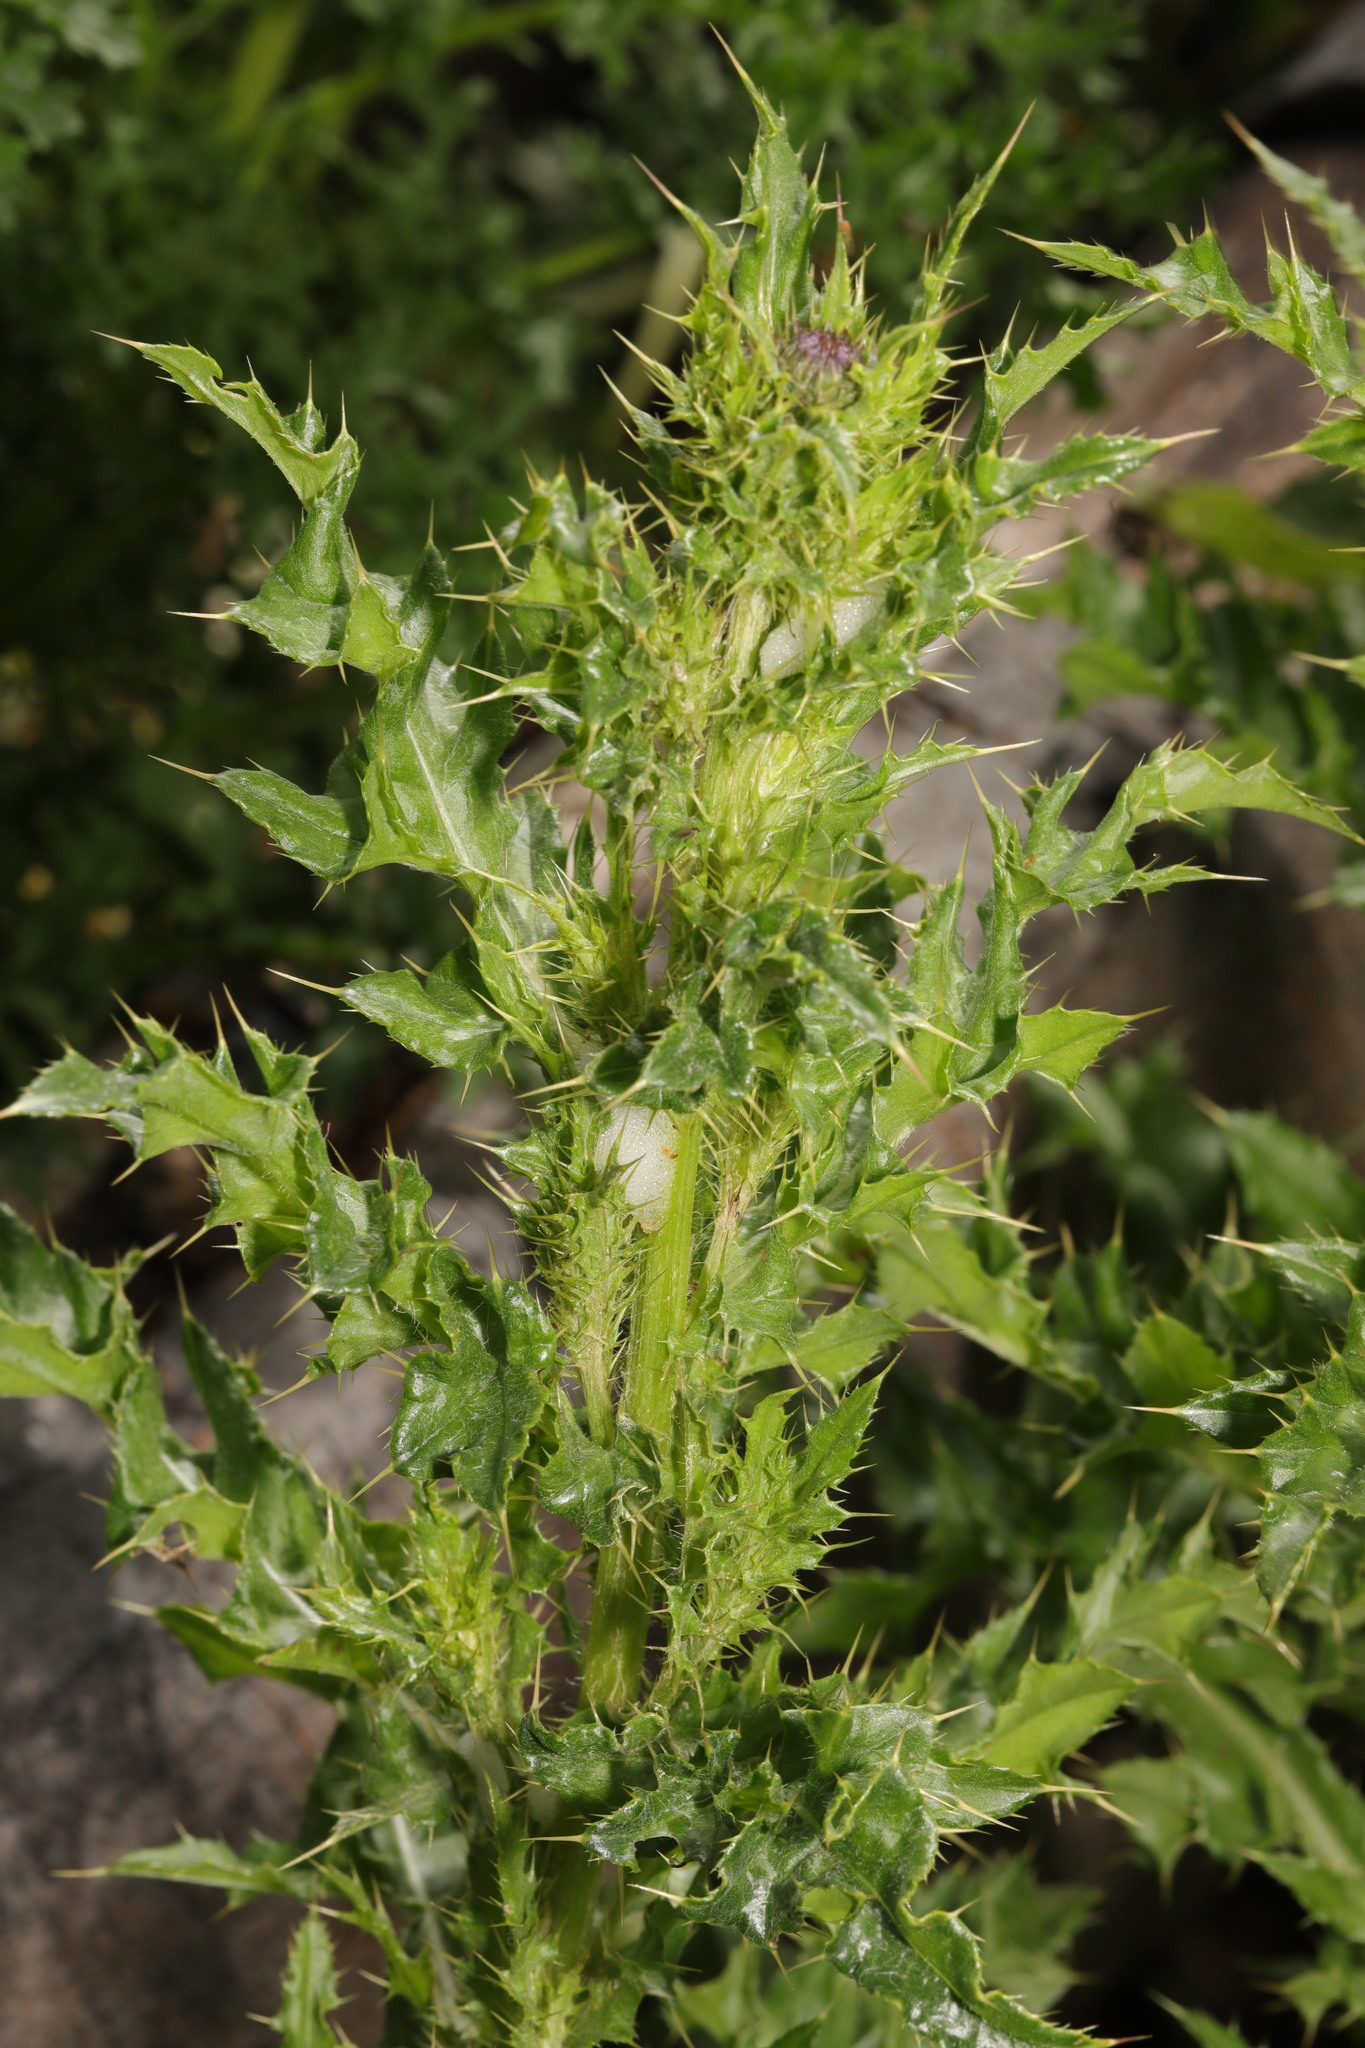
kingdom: Plantae
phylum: Tracheophyta
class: Magnoliopsida
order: Asterales
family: Asteraceae
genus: Cirsium
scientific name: Cirsium arvense
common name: Creeping thistle
